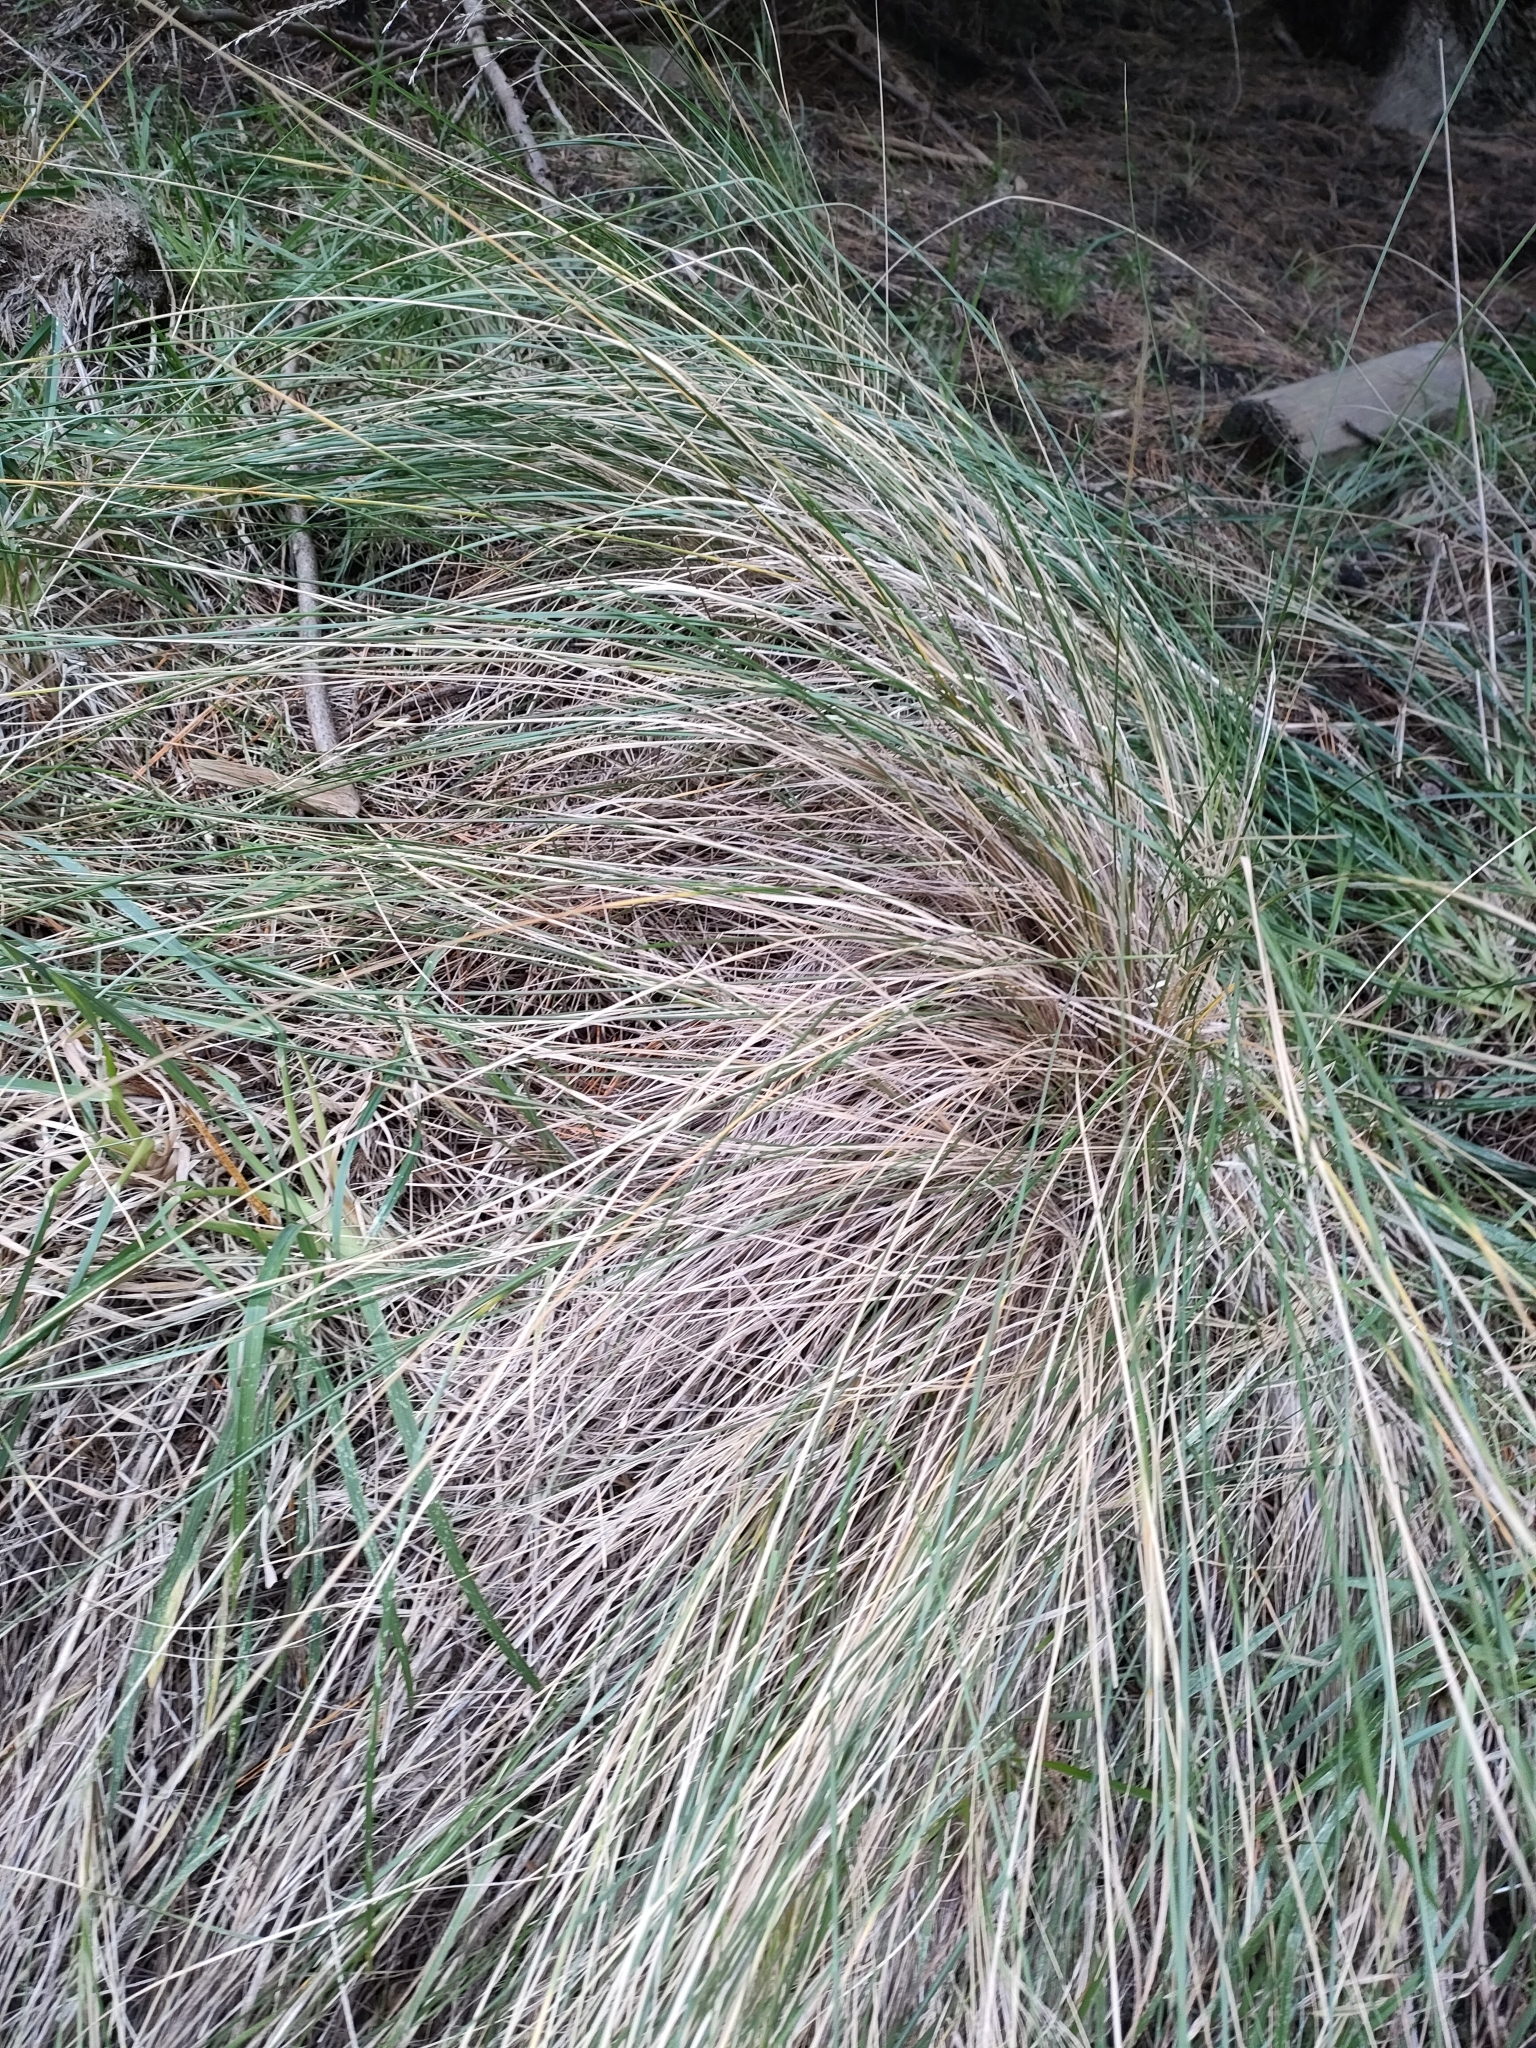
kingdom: Plantae
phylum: Tracheophyta
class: Liliopsida
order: Poales
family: Poaceae
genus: Poa
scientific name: Poa cita
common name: Silver tussock
